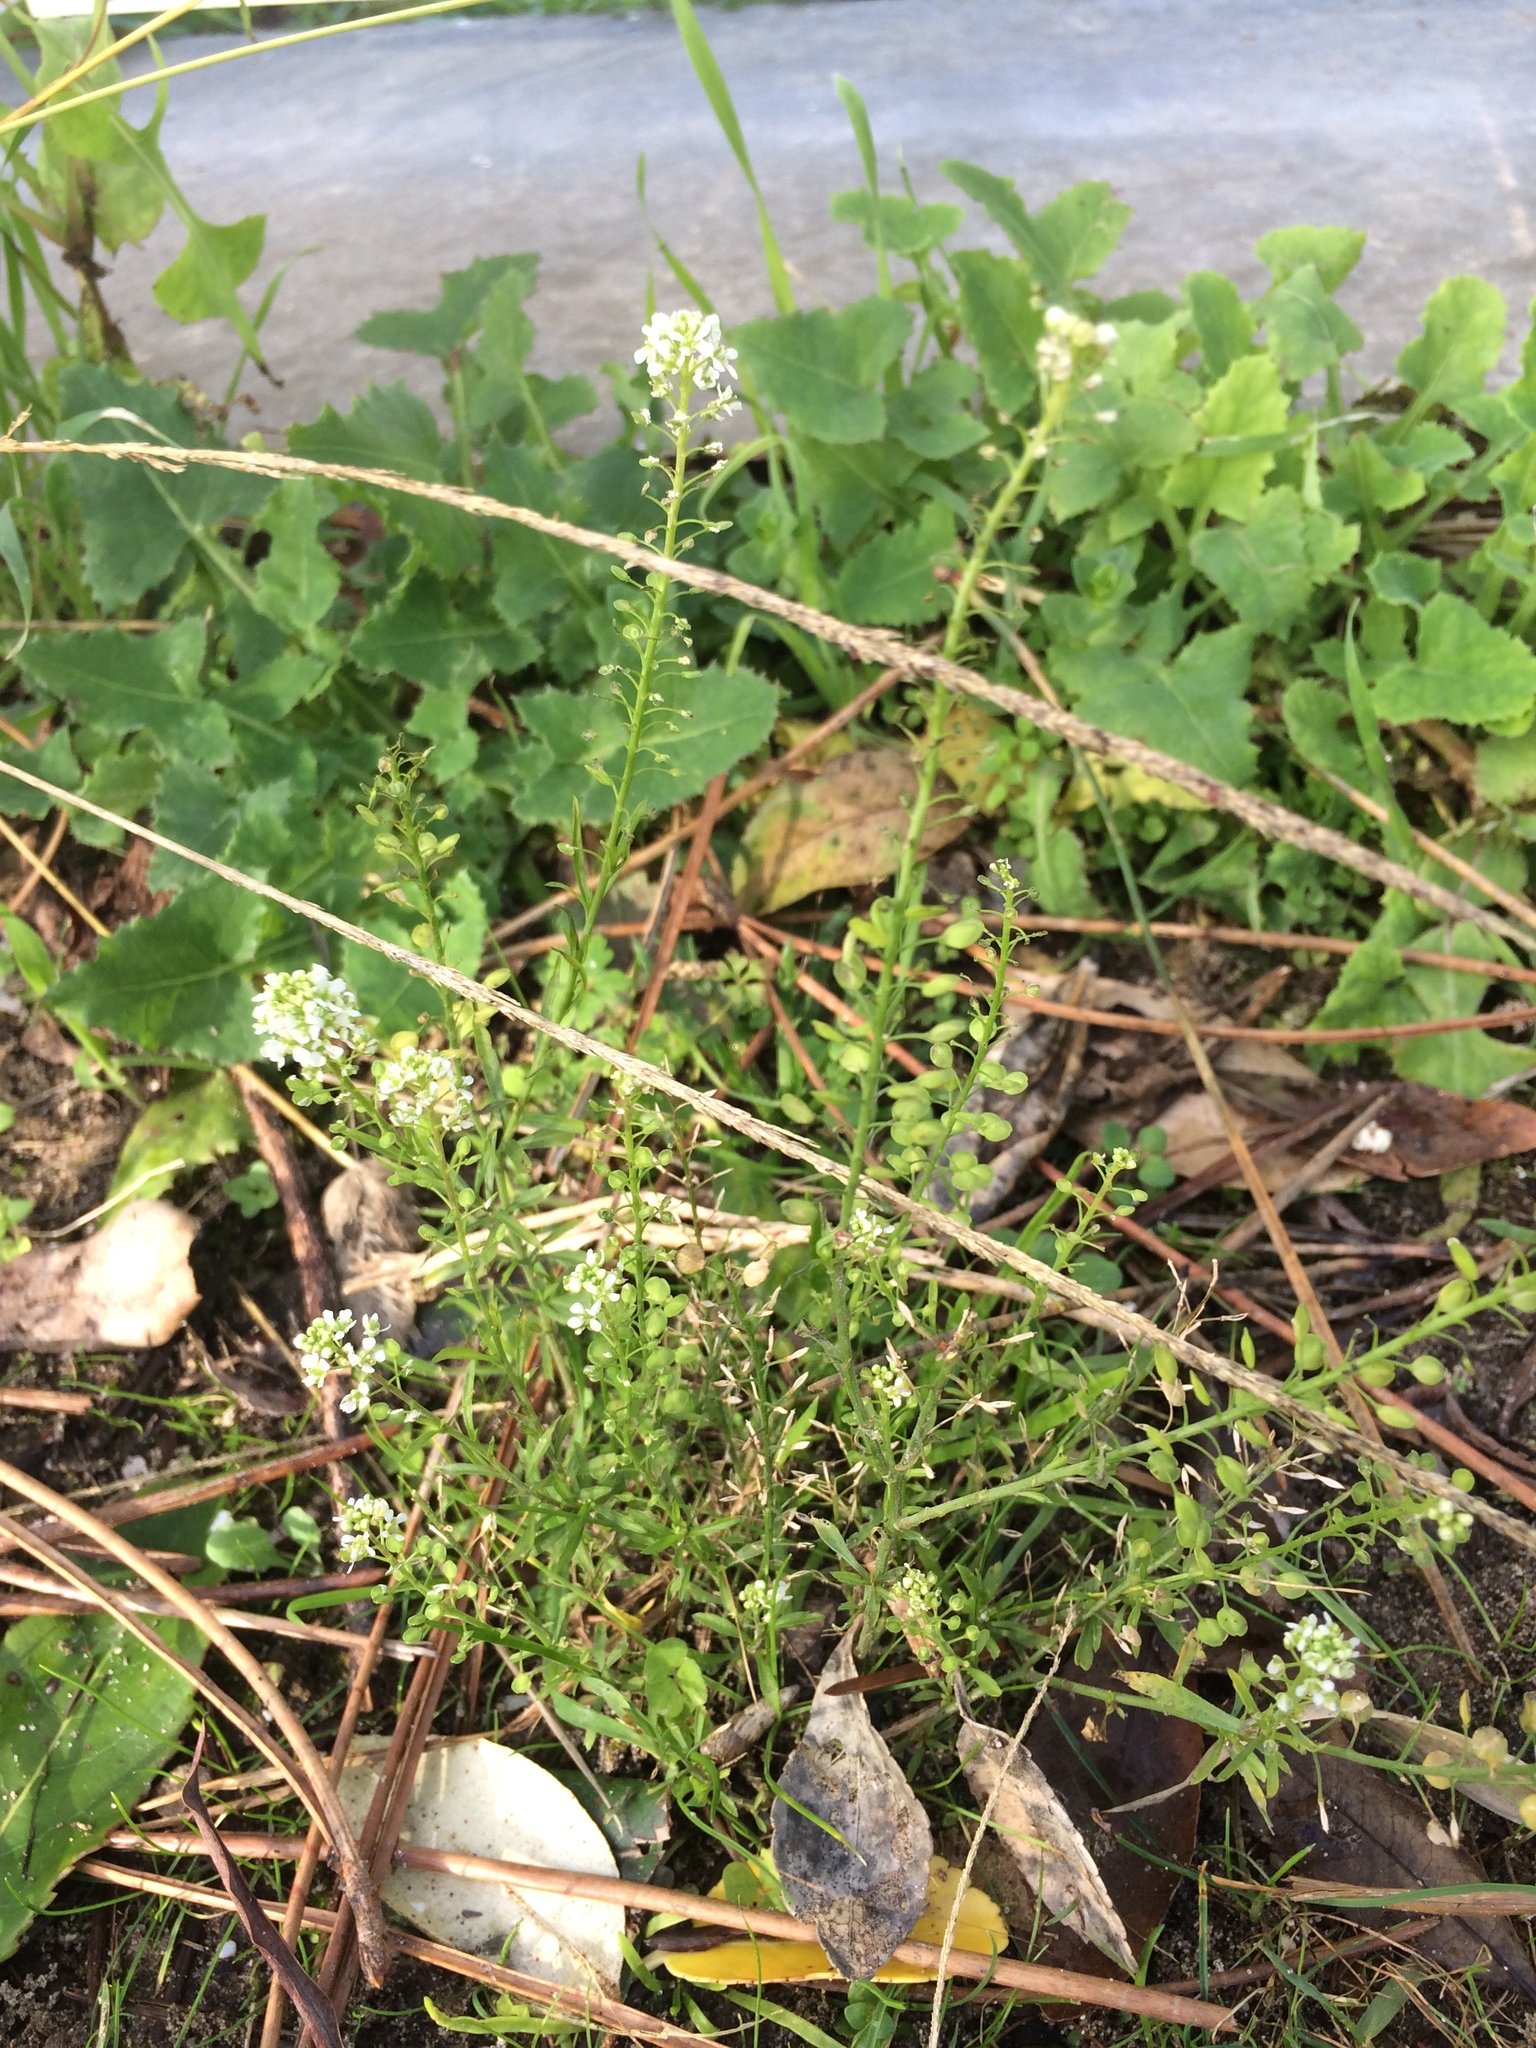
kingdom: Plantae
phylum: Tracheophyta
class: Magnoliopsida
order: Brassicales
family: Brassicaceae
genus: Lepidium
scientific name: Lepidium virginicum
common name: Least pepperwort
